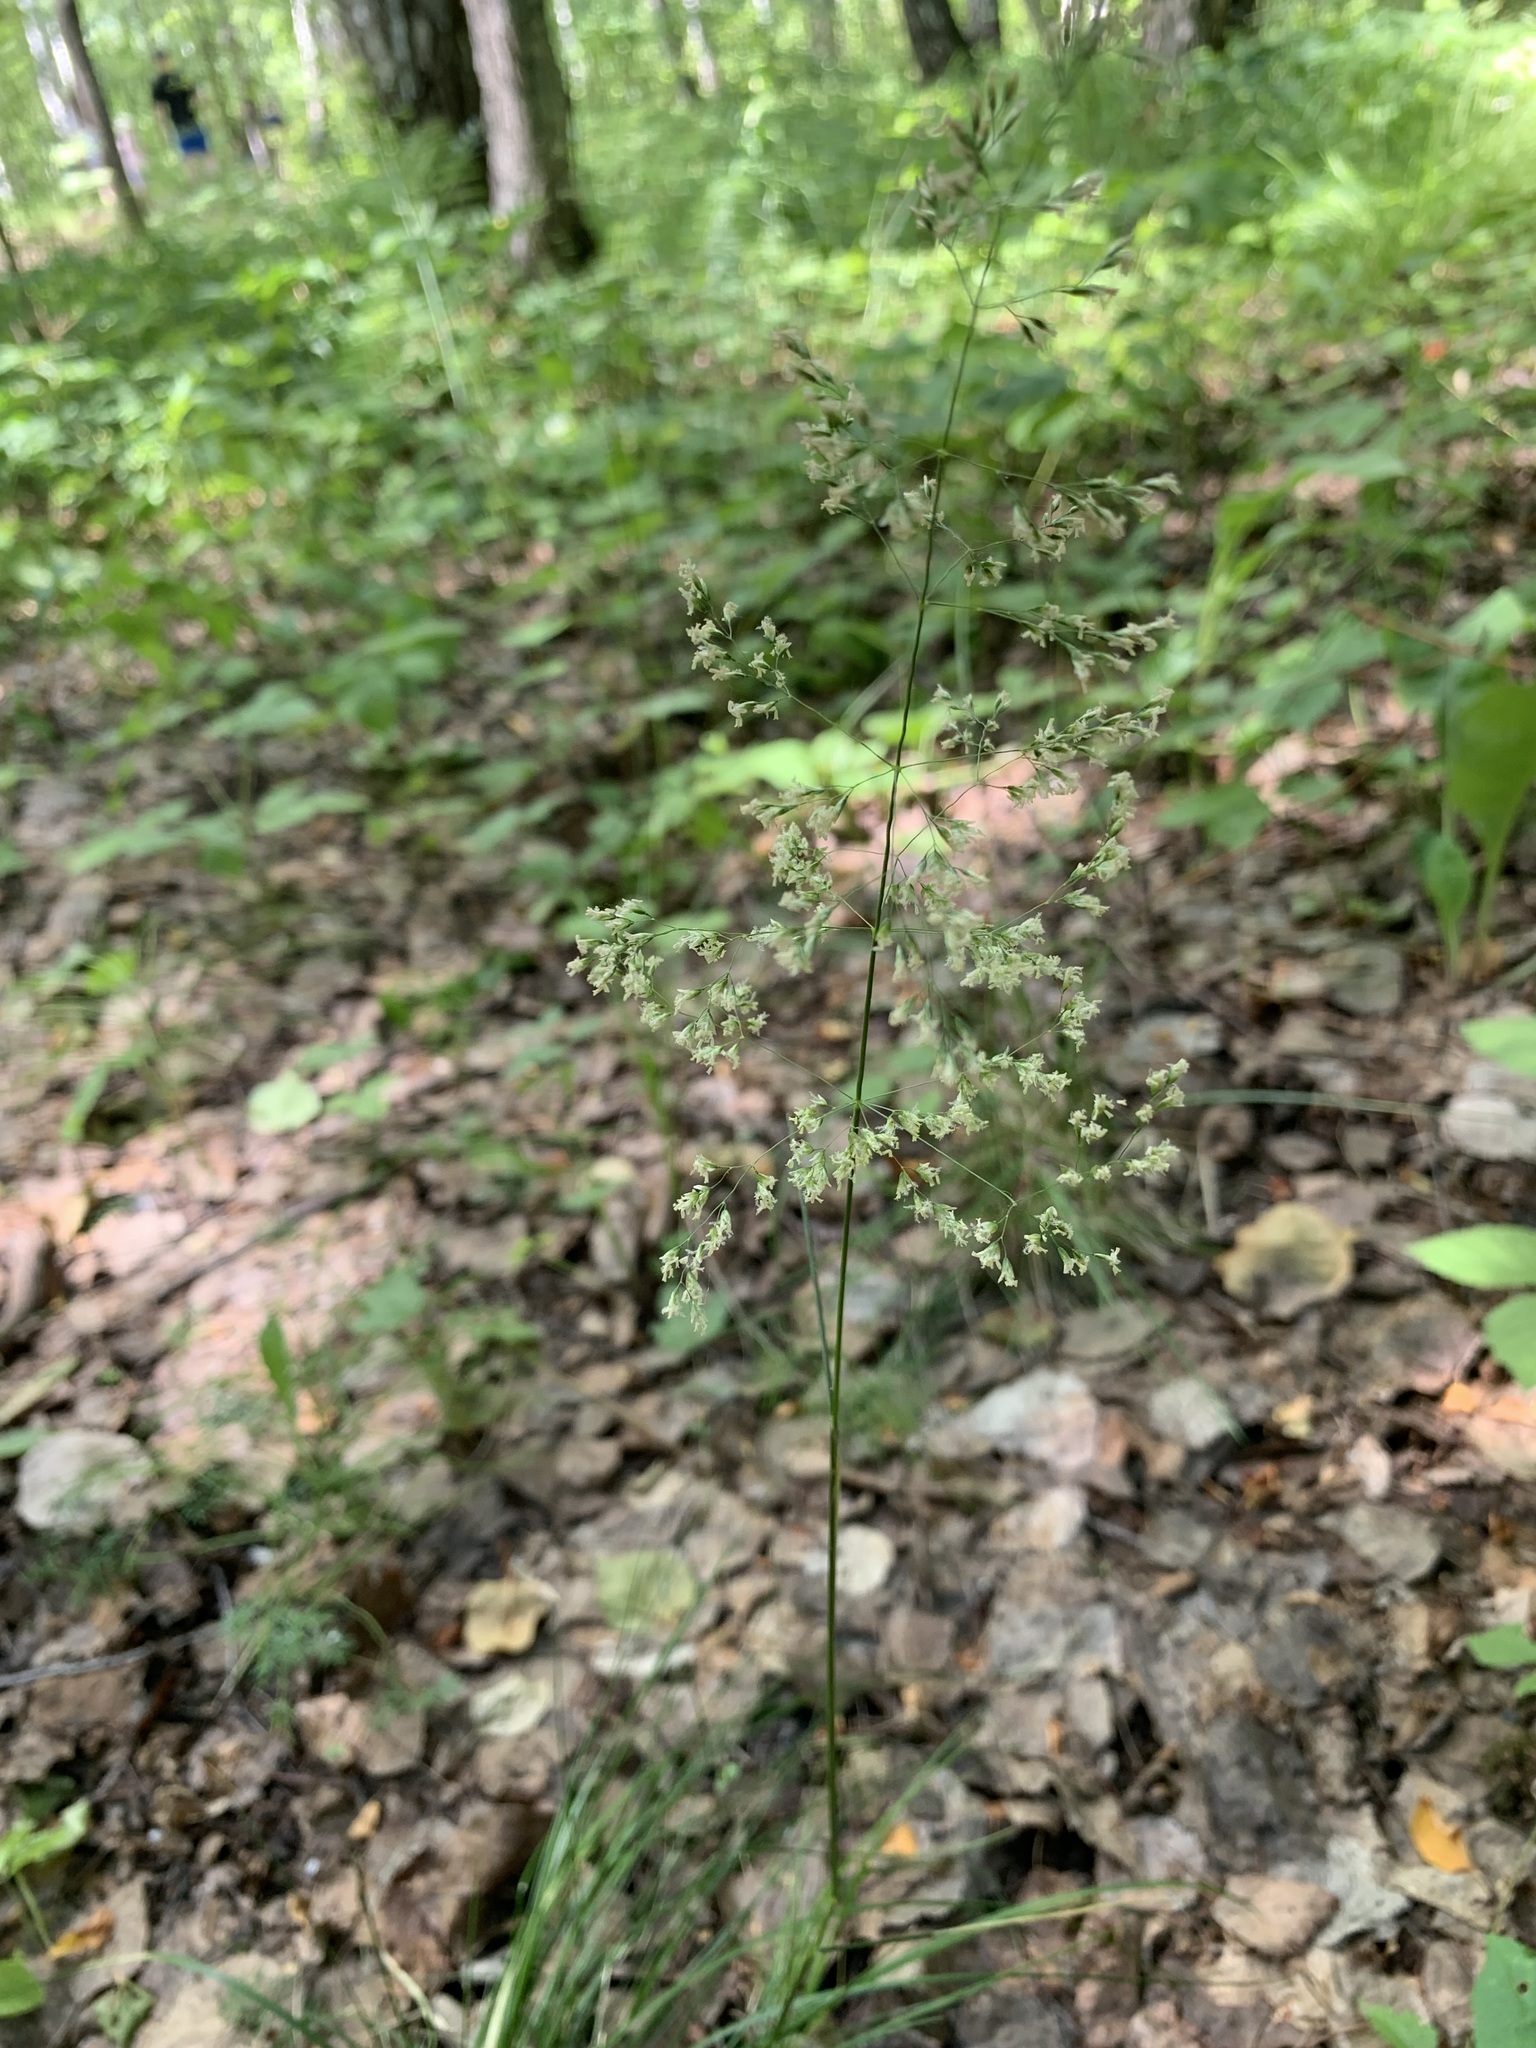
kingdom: Plantae
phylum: Tracheophyta
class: Liliopsida
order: Poales
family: Poaceae
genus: Deschampsia
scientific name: Deschampsia cespitosa
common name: Tufted hair-grass
